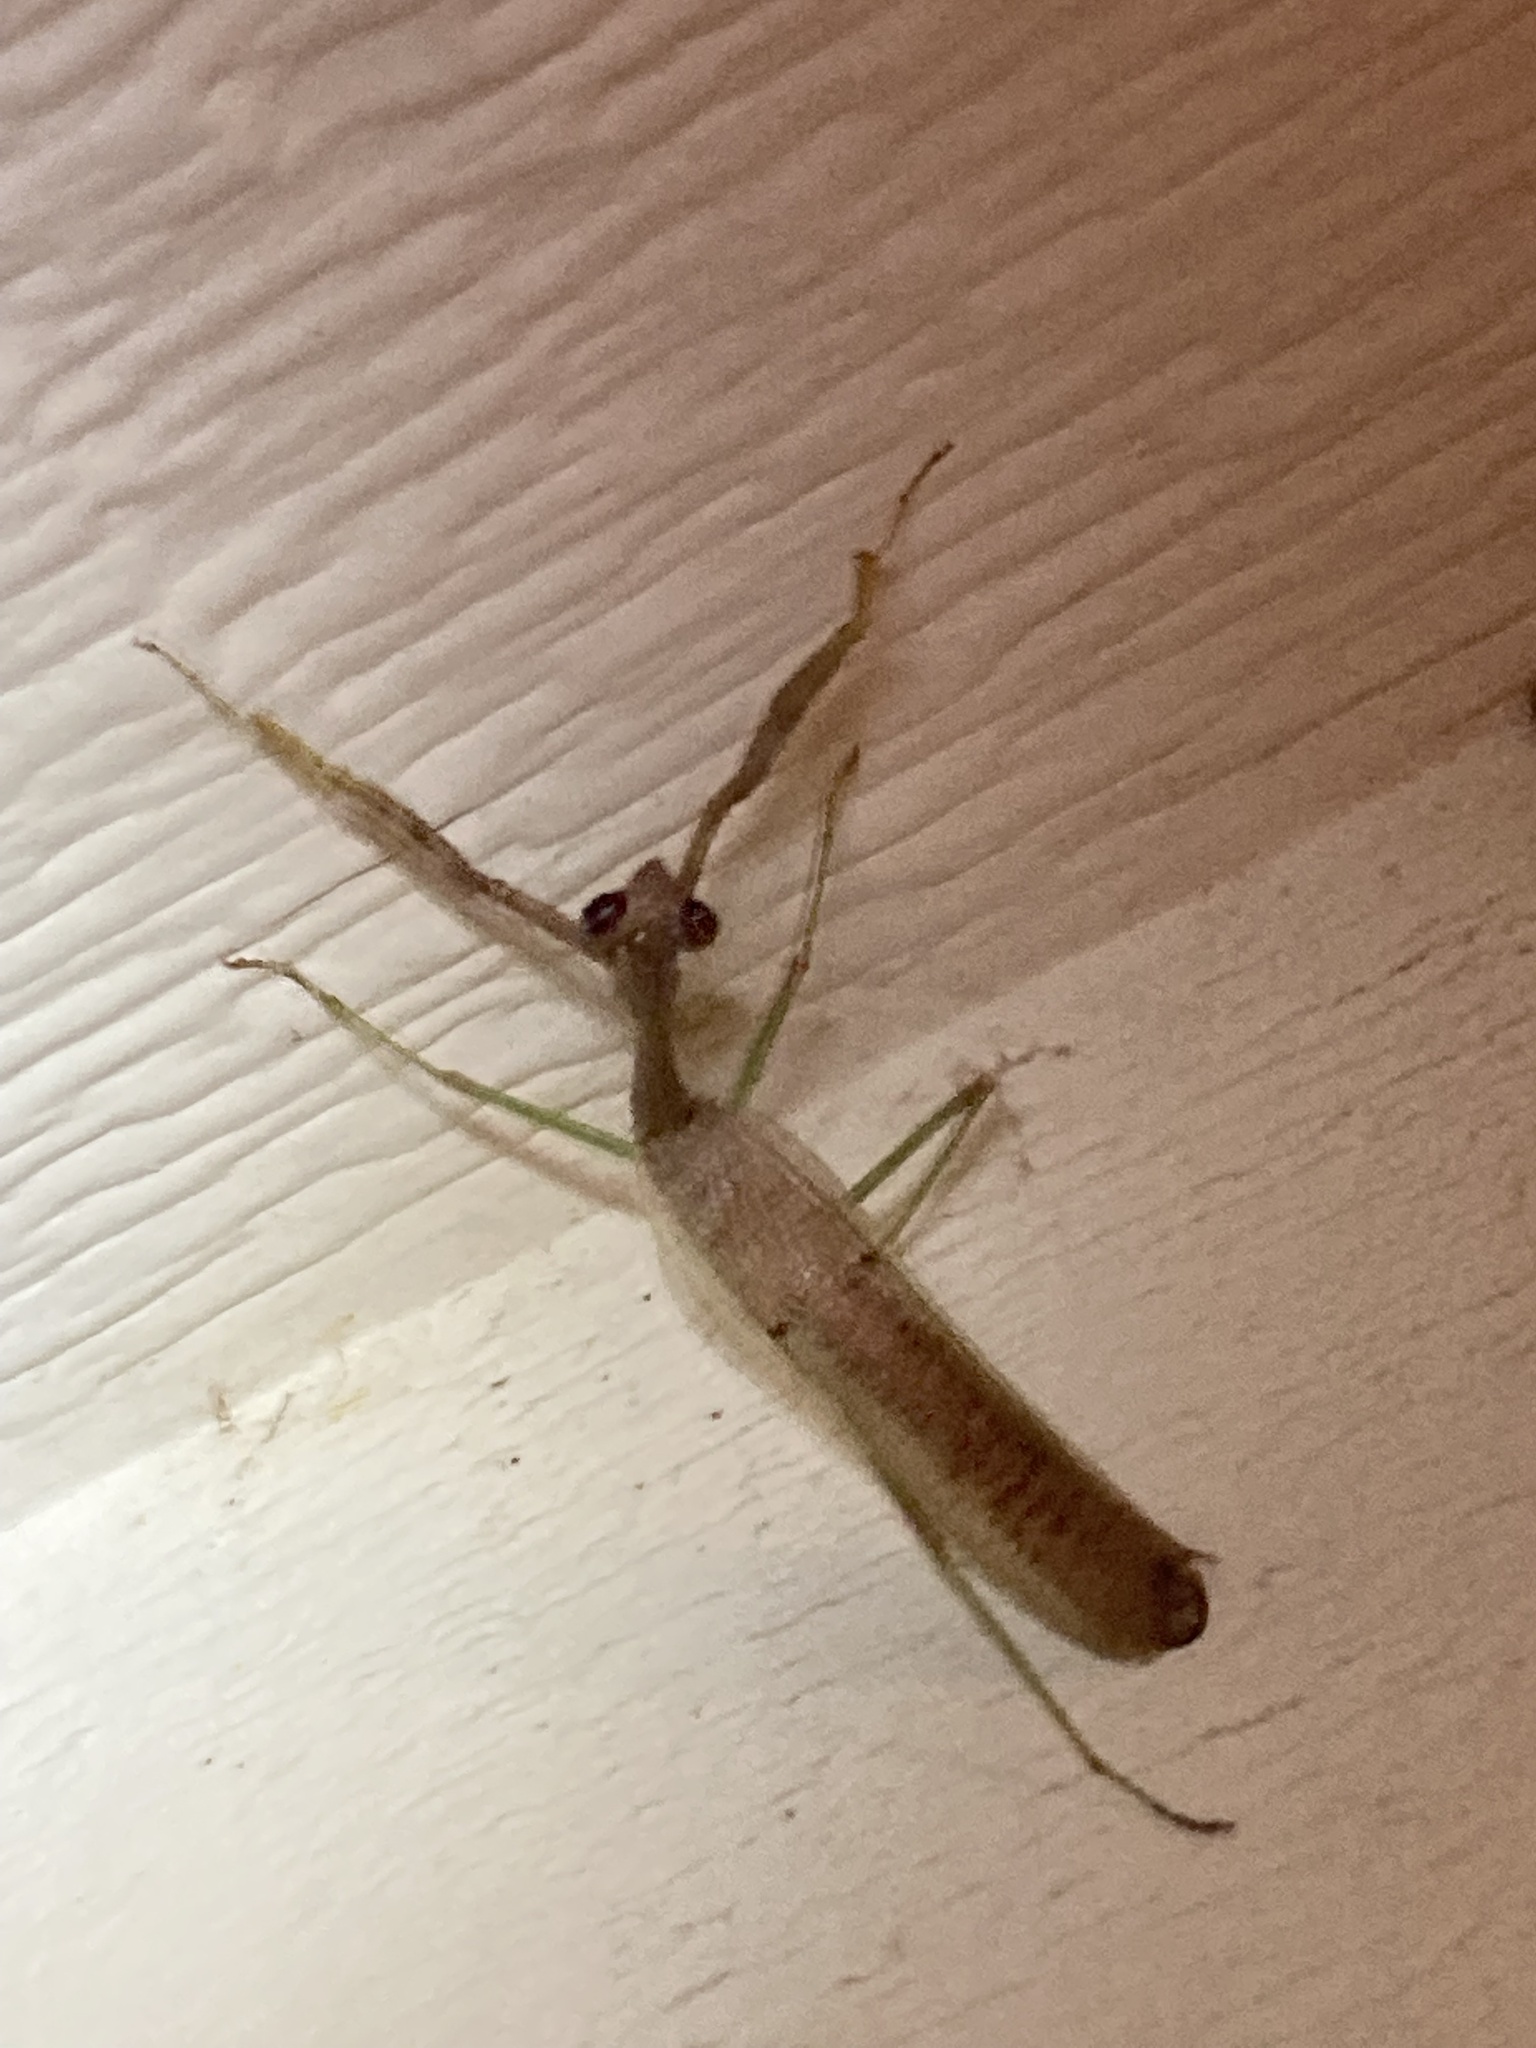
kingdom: Animalia
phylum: Arthropoda
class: Insecta
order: Mantodea
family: Mantidae
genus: Stagmomantis
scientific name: Stagmomantis carolina
